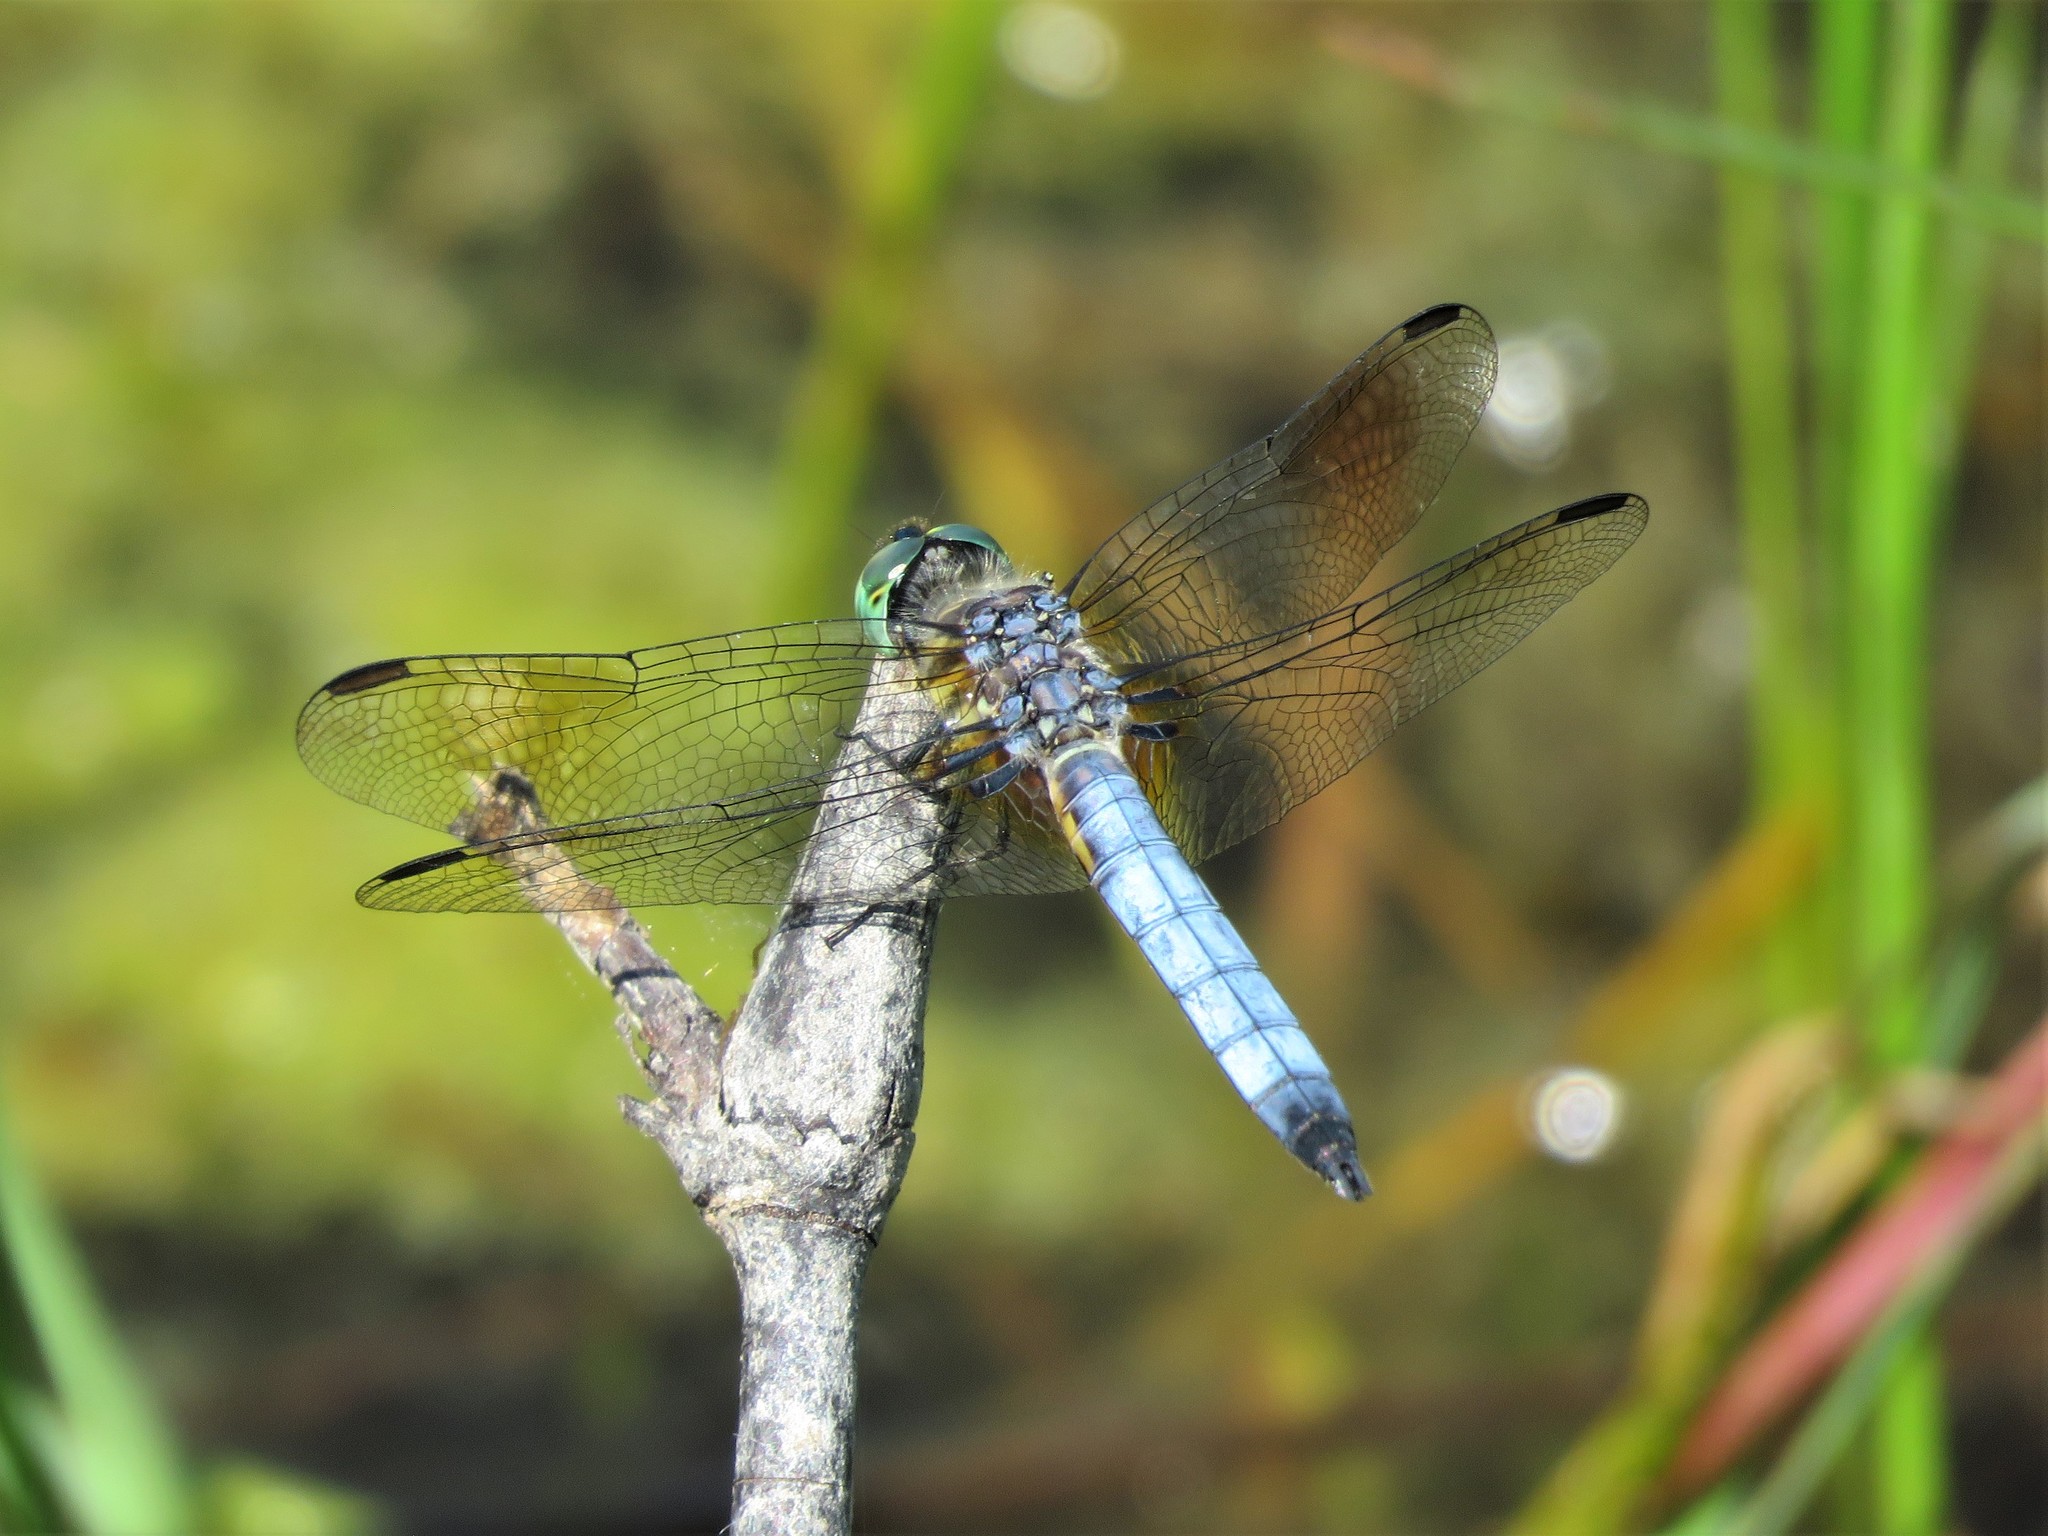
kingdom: Animalia
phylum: Arthropoda
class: Insecta
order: Odonata
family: Libellulidae
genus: Pachydiplax
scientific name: Pachydiplax longipennis
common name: Blue dasher
